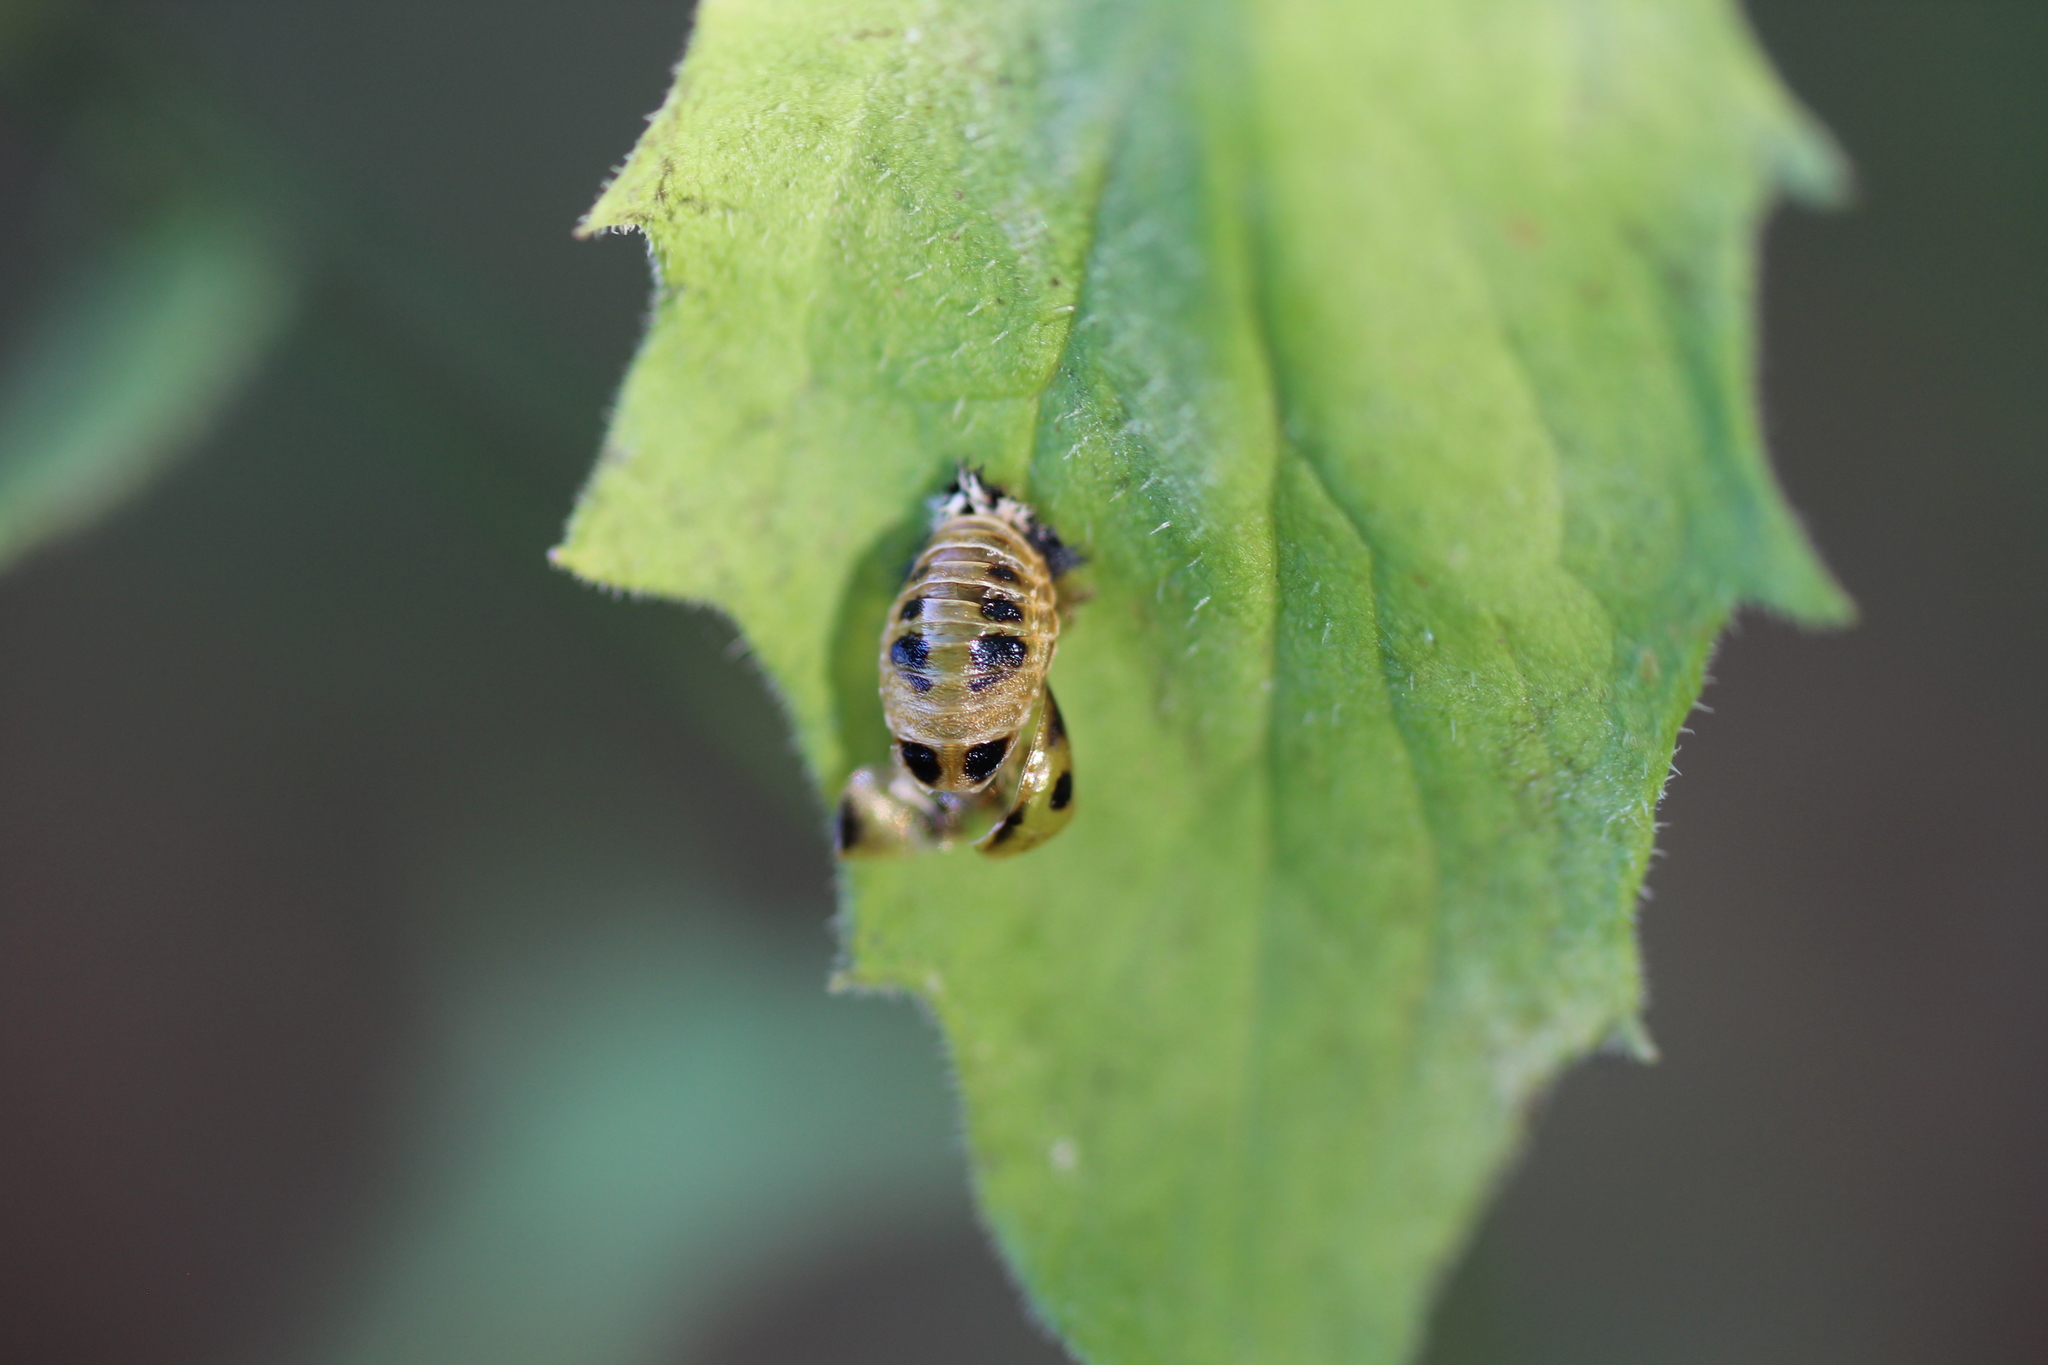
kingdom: Animalia
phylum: Arthropoda
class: Insecta
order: Coleoptera
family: Coccinellidae
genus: Harmonia
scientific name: Harmonia axyridis
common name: Harlequin ladybird
